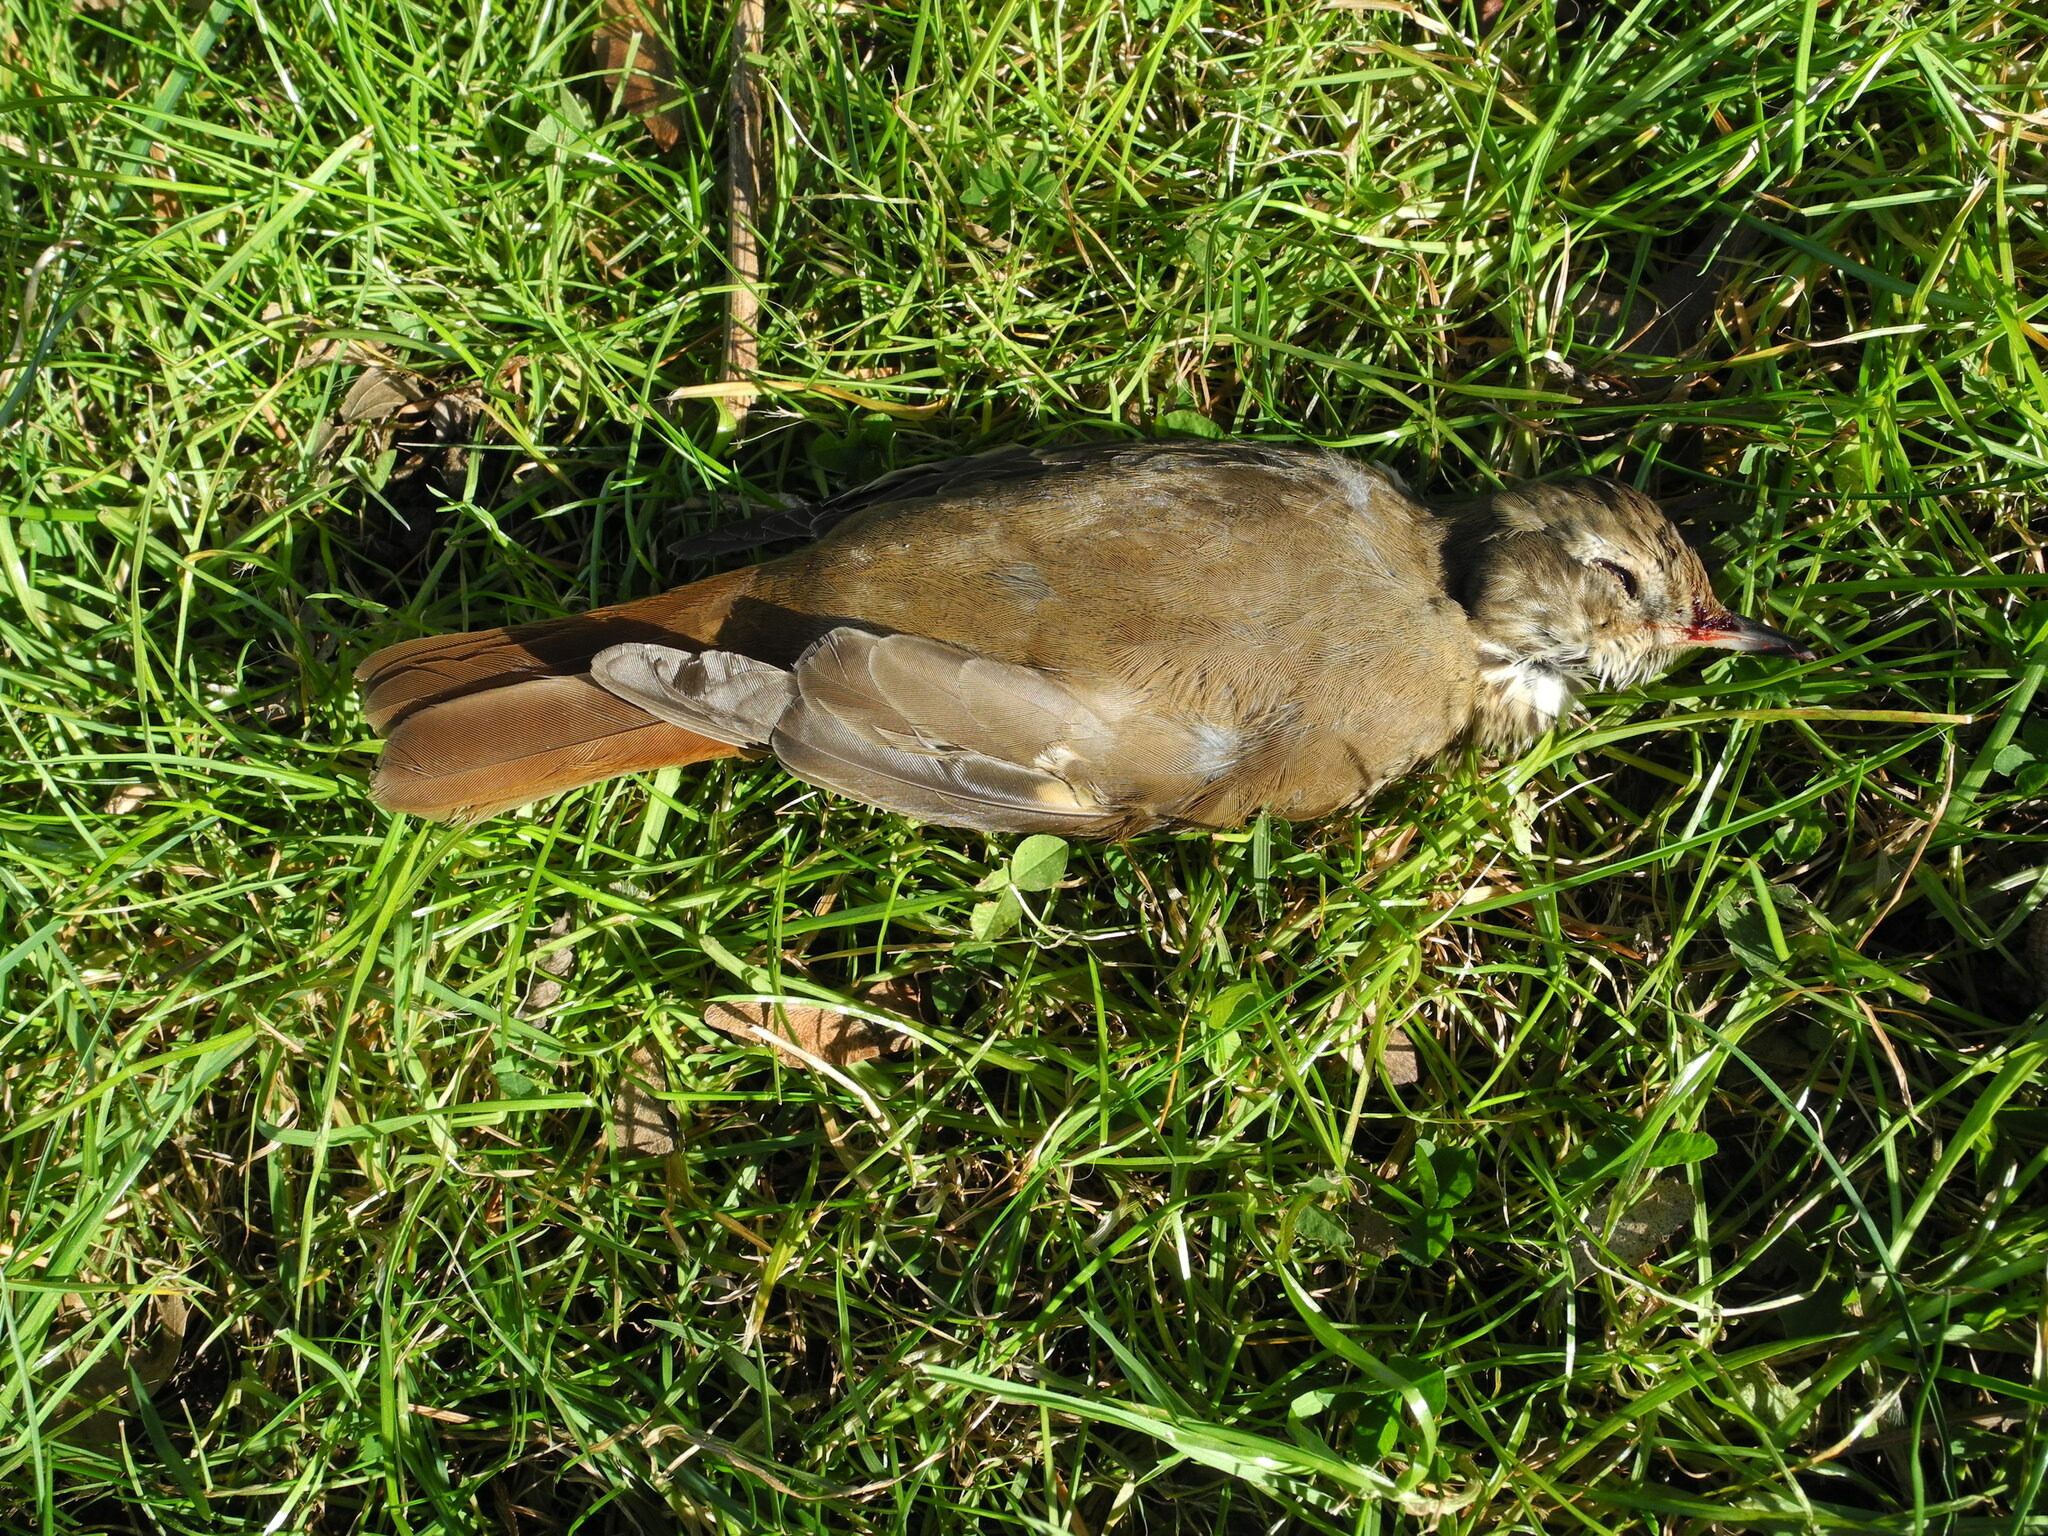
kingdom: Animalia
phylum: Chordata
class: Aves
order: Passeriformes
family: Turdidae
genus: Catharus
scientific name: Catharus guttatus
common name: Hermit thrush
